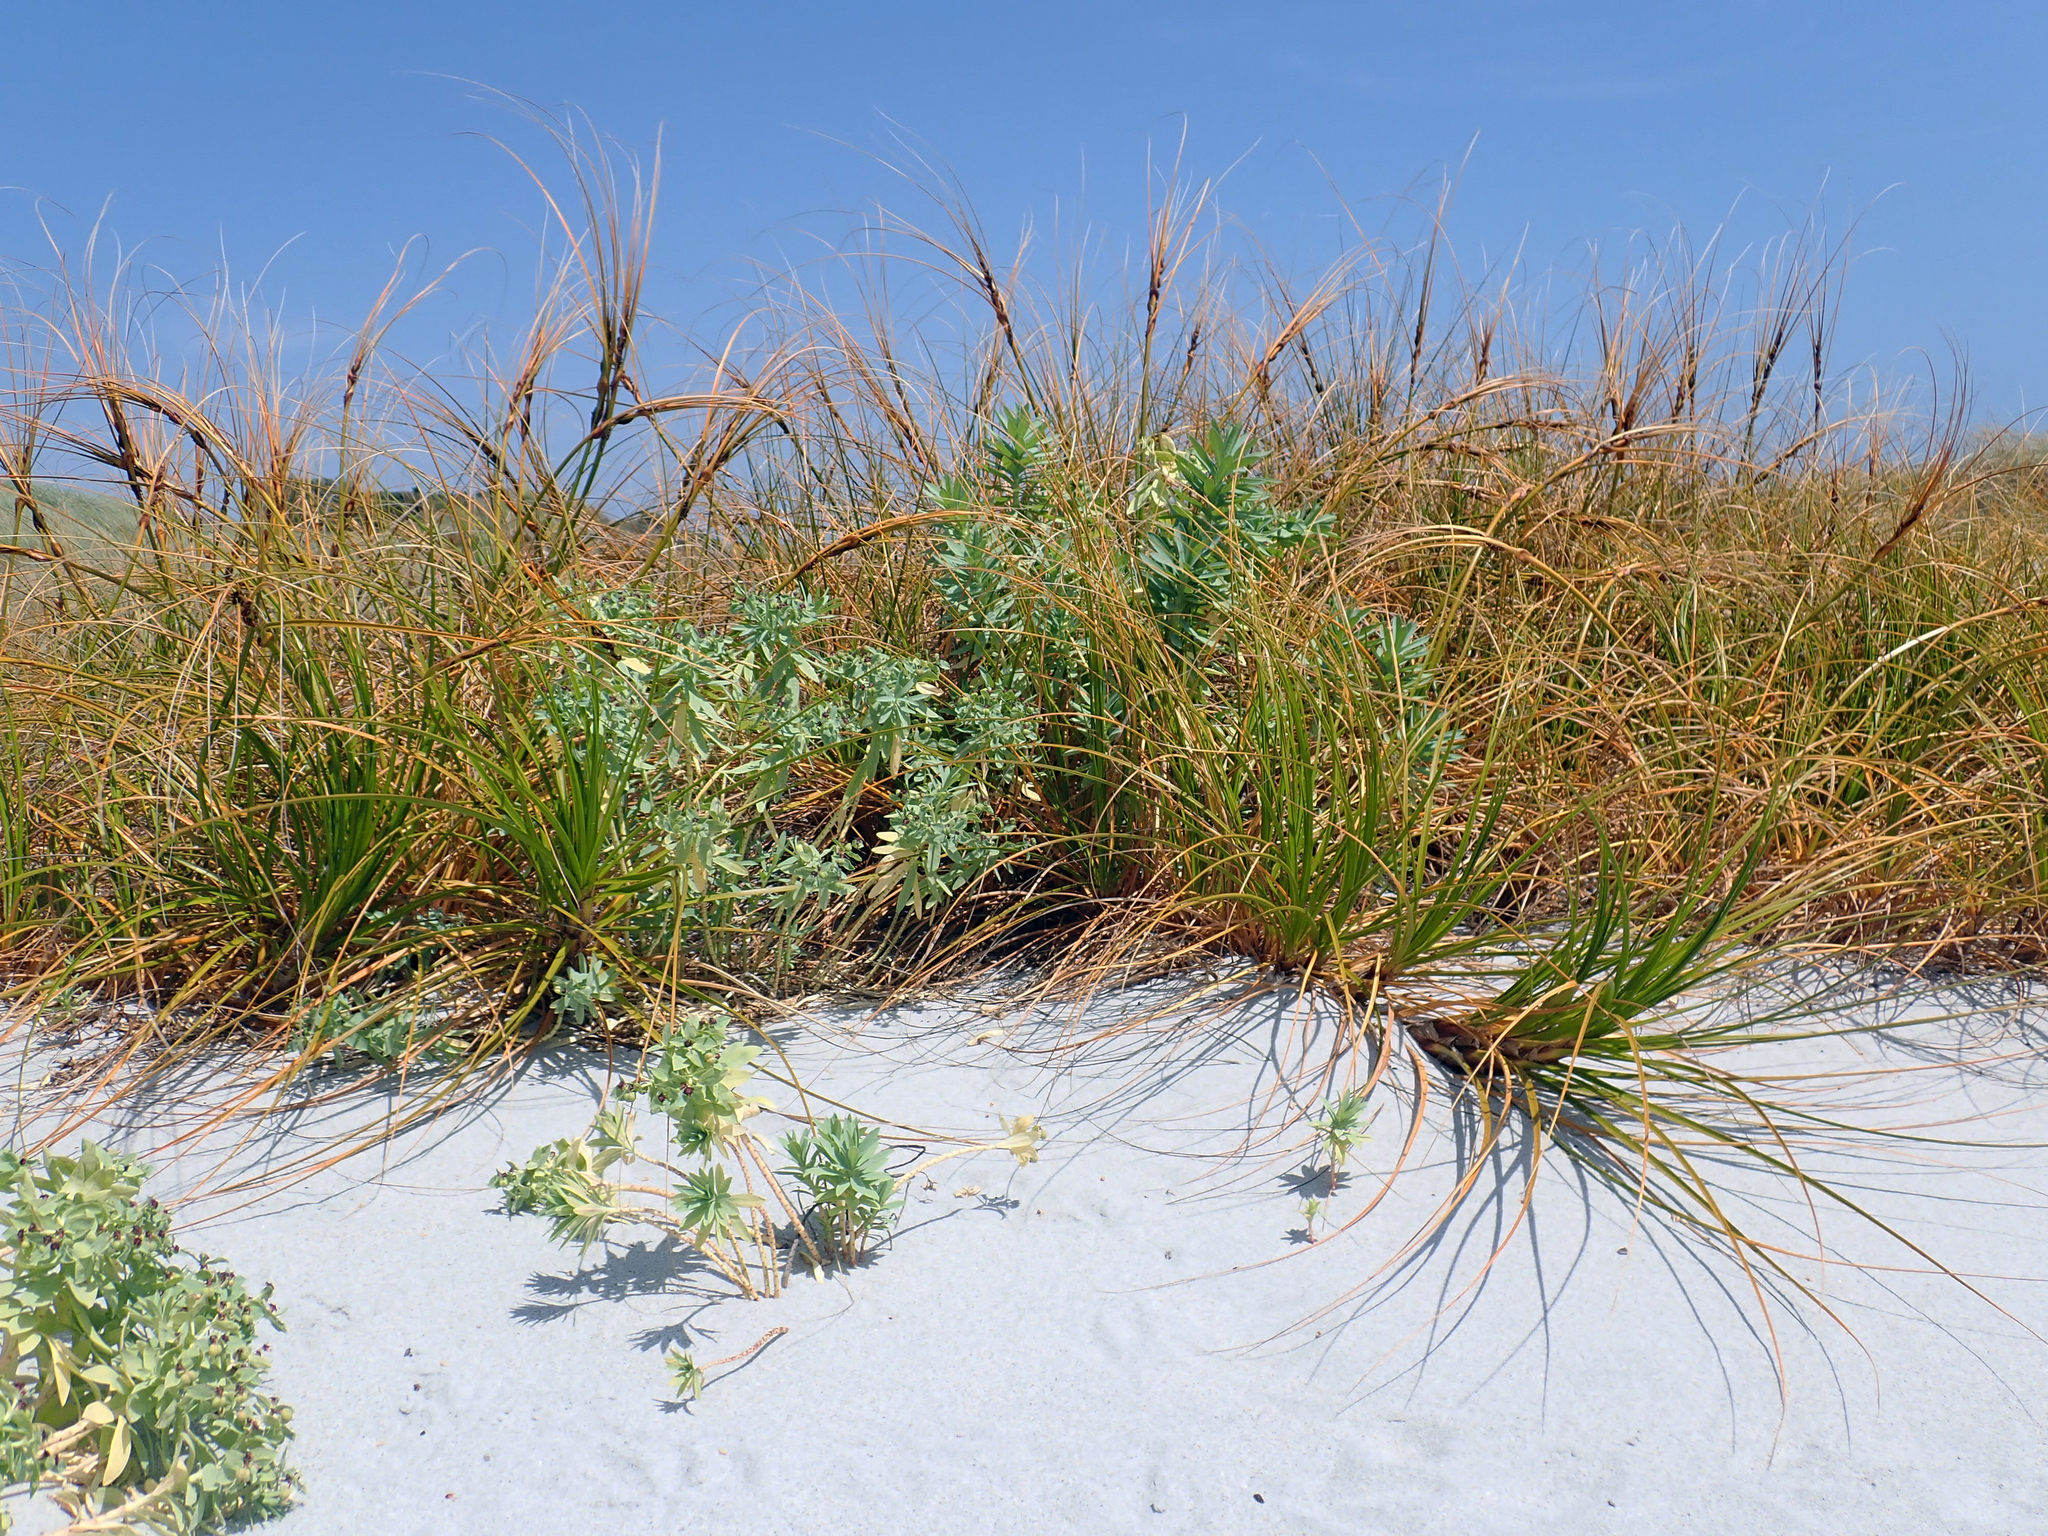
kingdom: Plantae
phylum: Tracheophyta
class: Liliopsida
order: Poales
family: Cyperaceae
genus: Ficinia
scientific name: Ficinia spiralis
